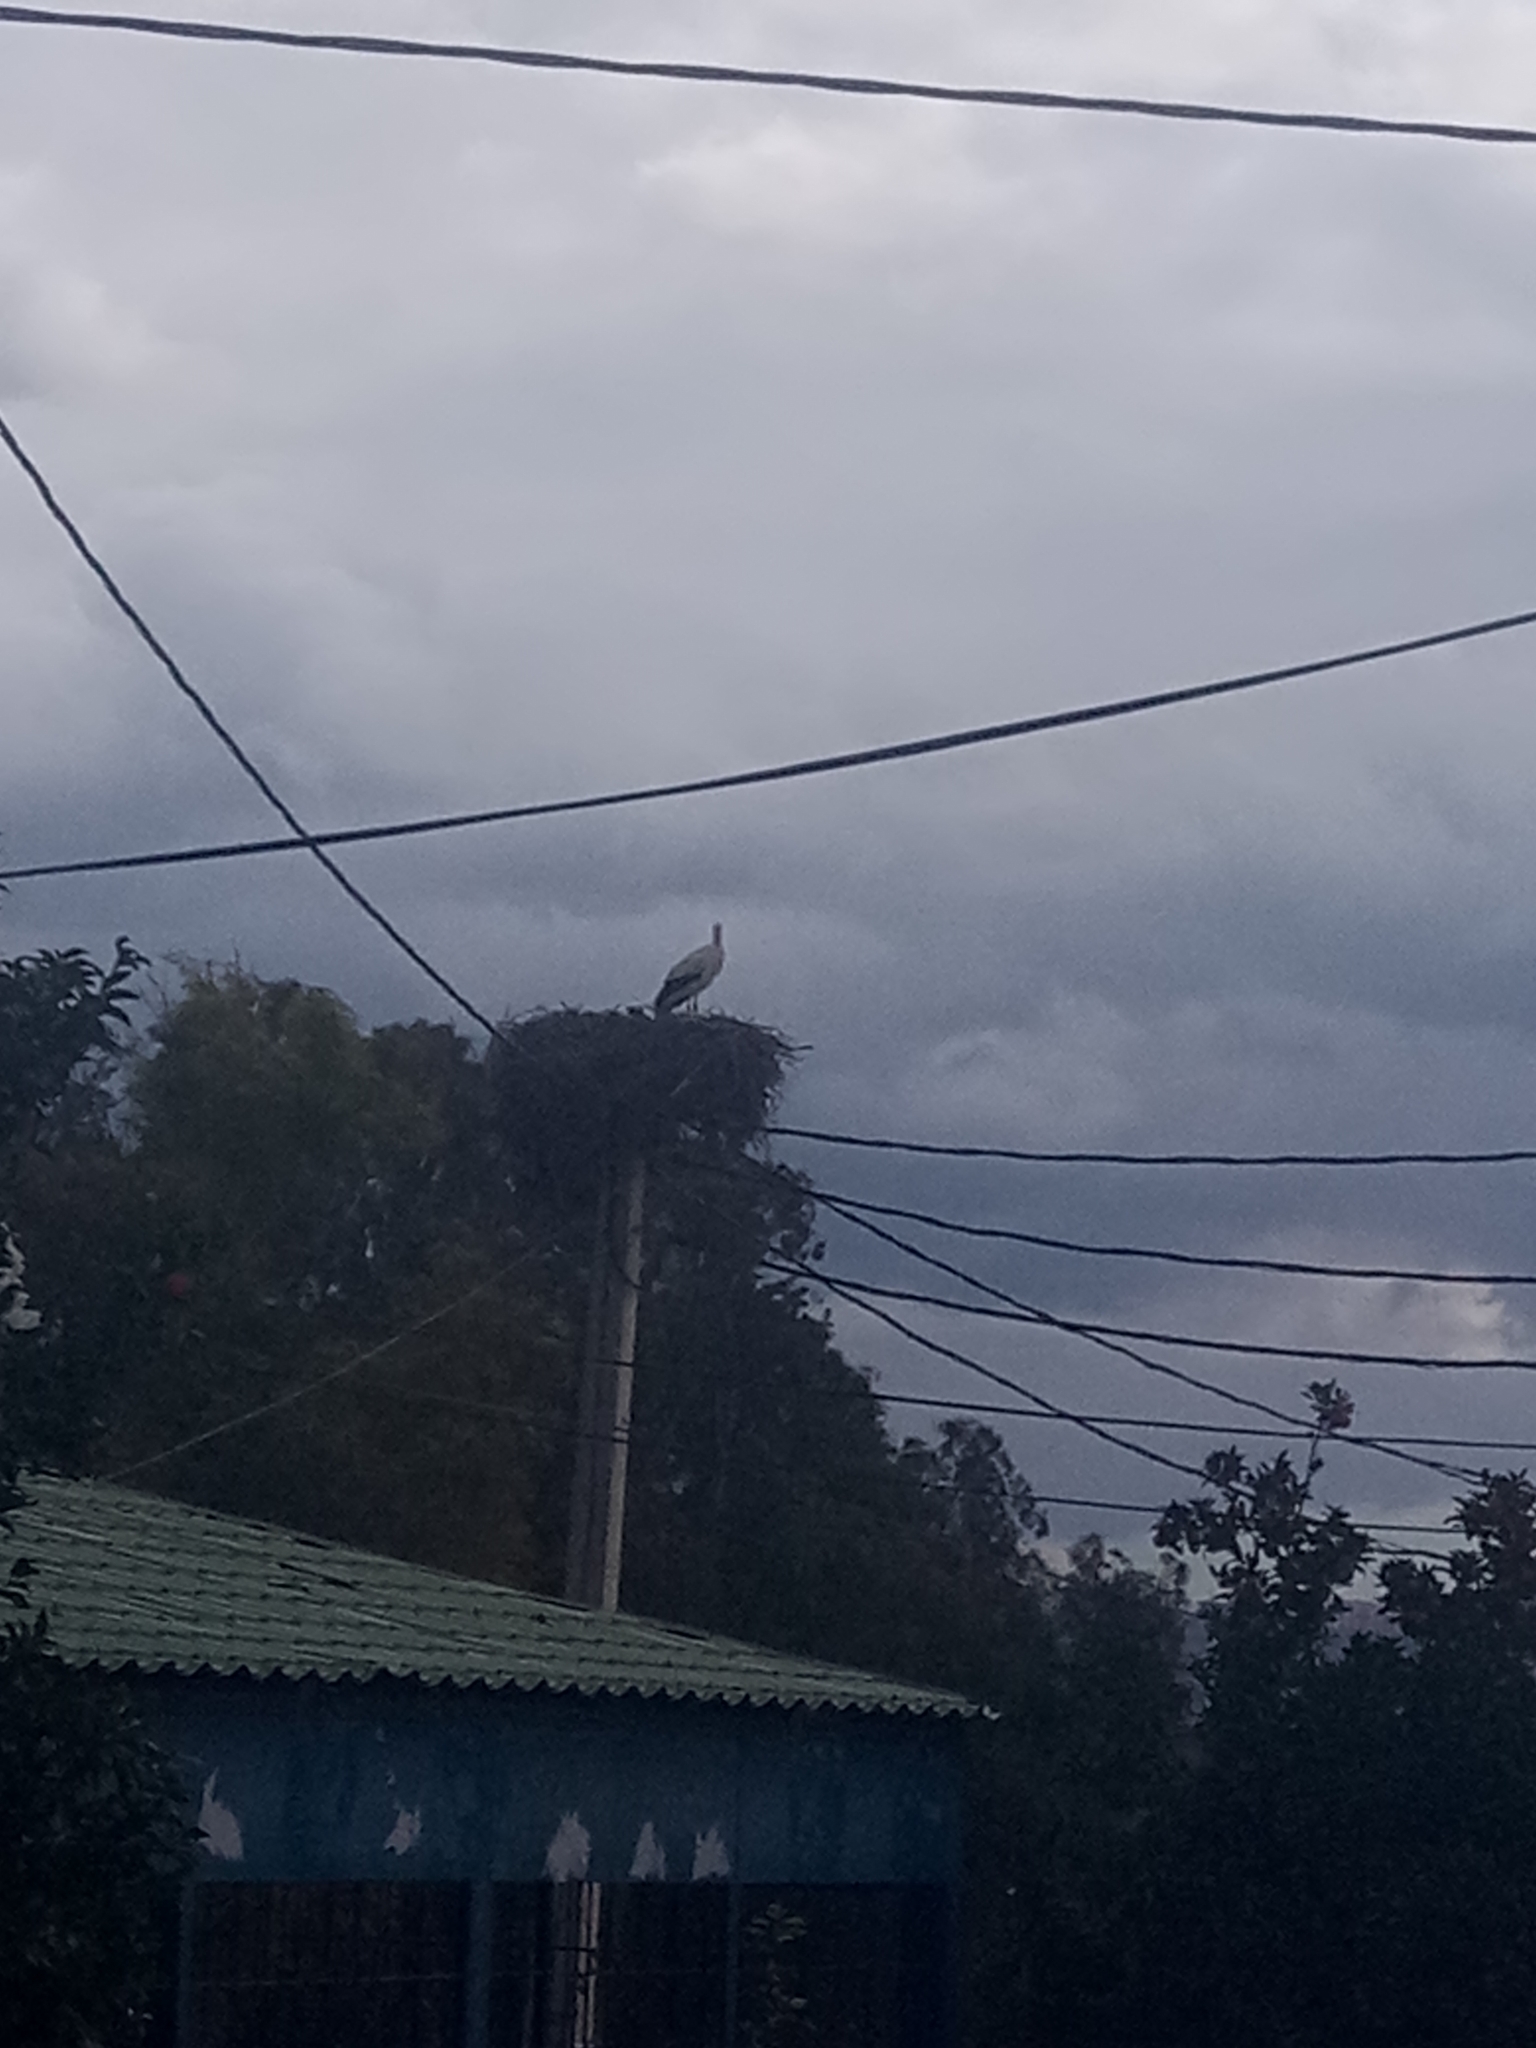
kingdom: Animalia
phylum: Chordata
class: Aves
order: Ciconiiformes
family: Ciconiidae
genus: Ciconia
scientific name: Ciconia ciconia
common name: White stork
